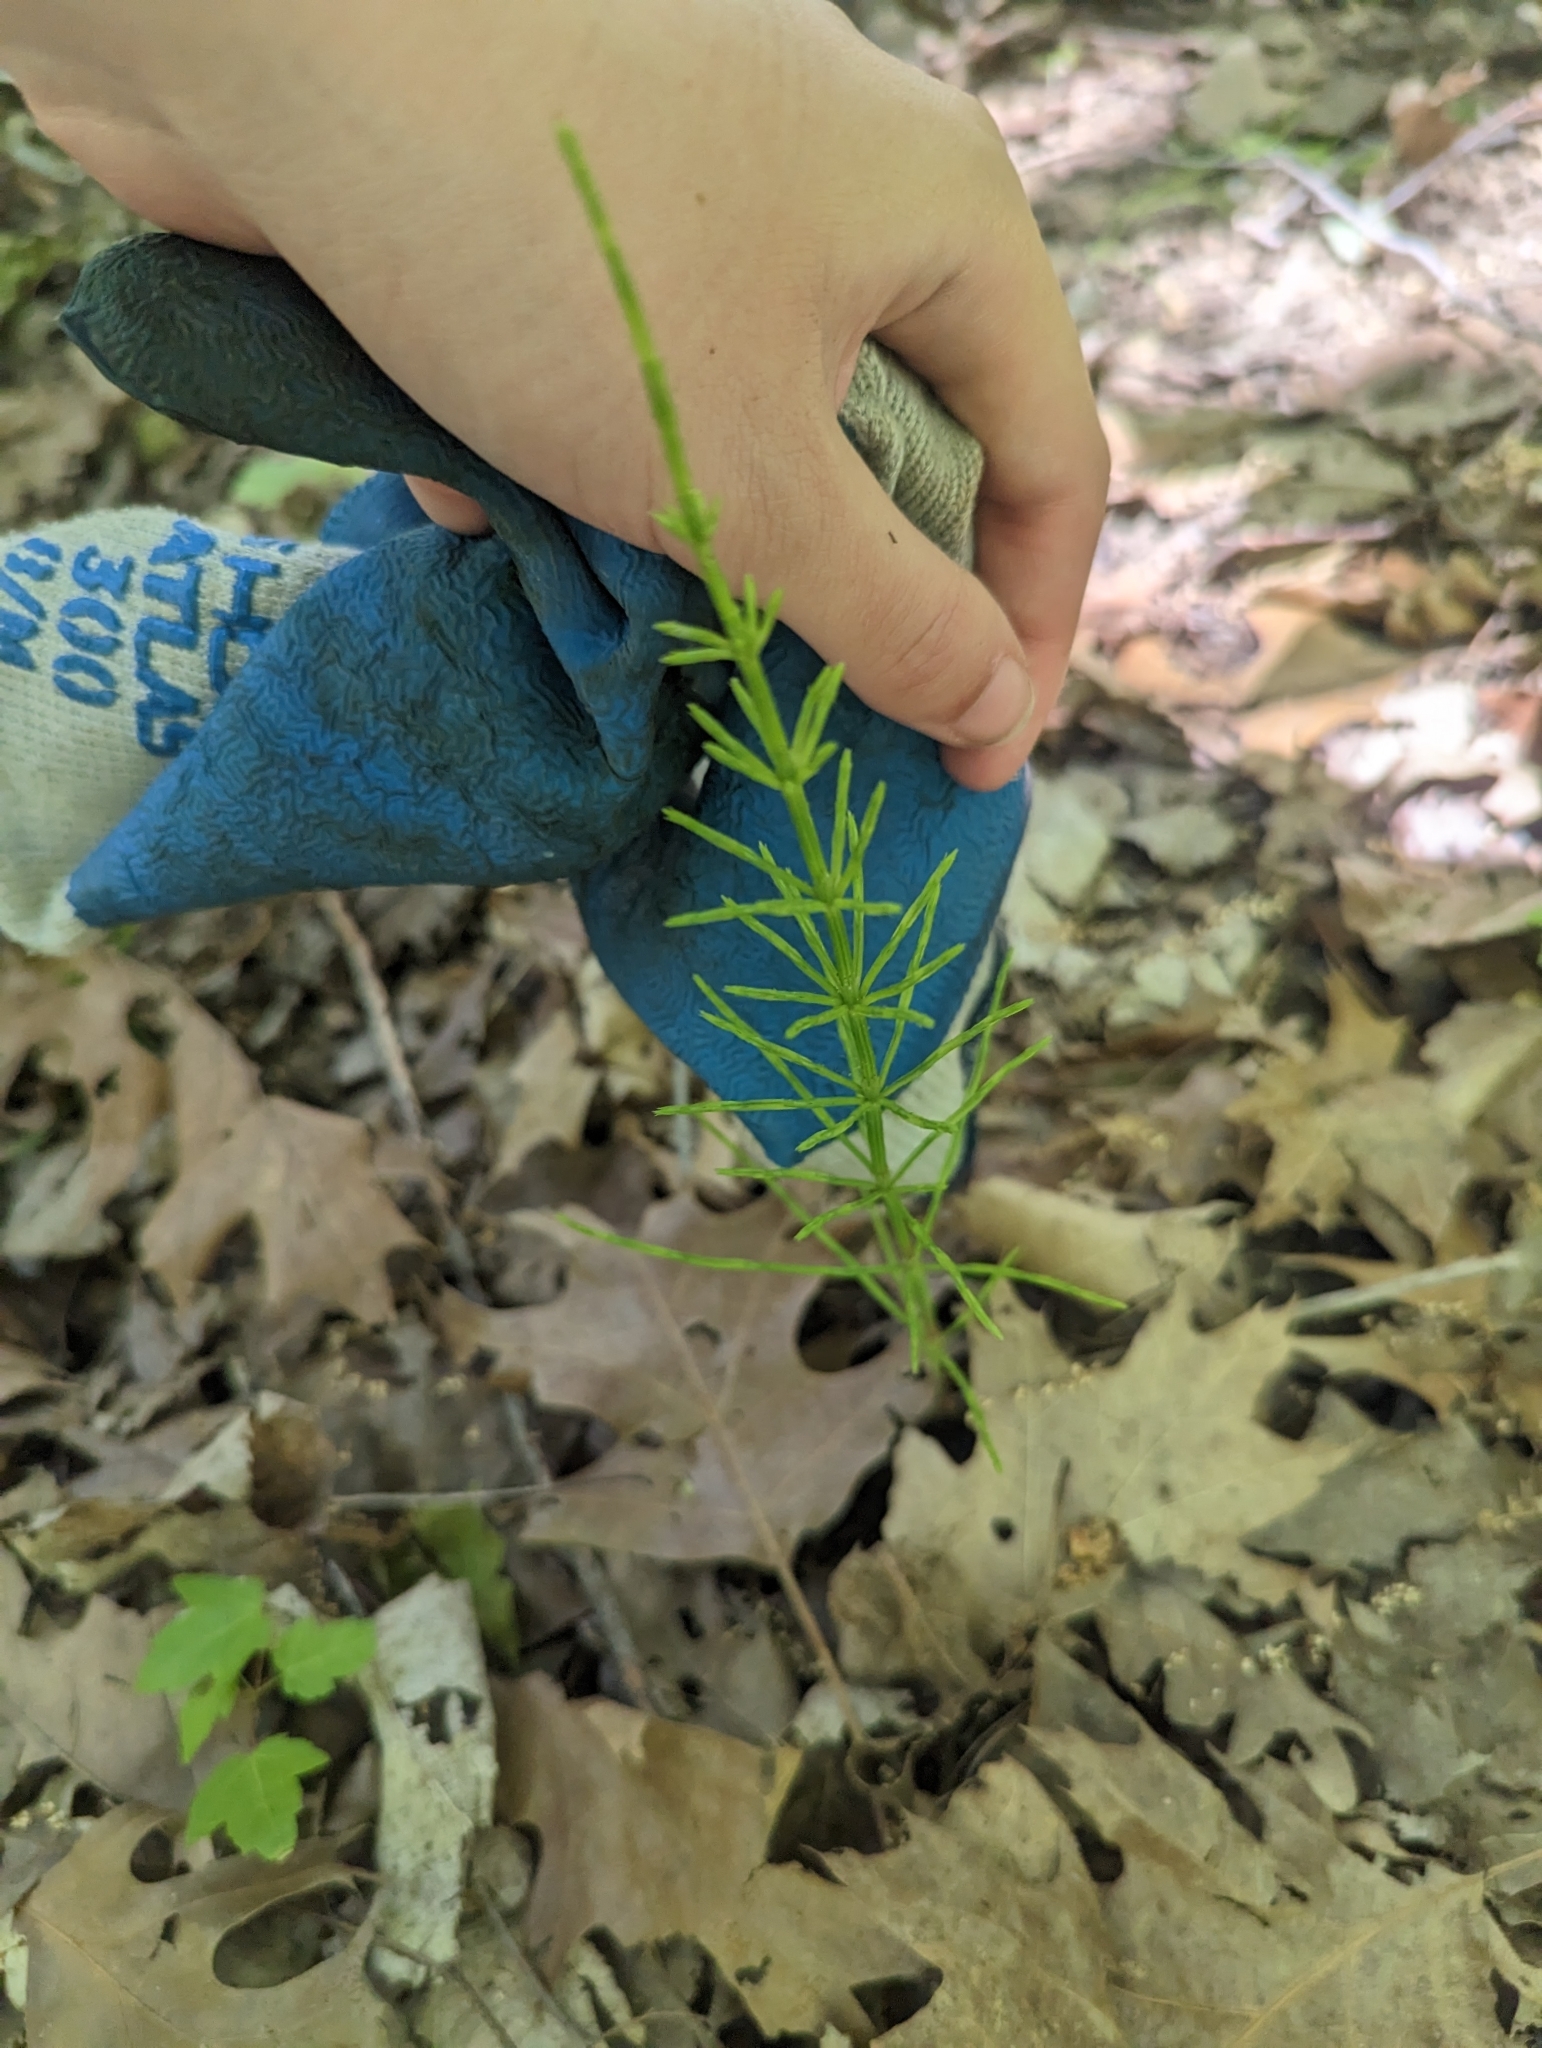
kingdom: Plantae
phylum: Tracheophyta
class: Polypodiopsida
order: Equisetales
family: Equisetaceae
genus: Equisetum
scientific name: Equisetum arvense
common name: Field horsetail
